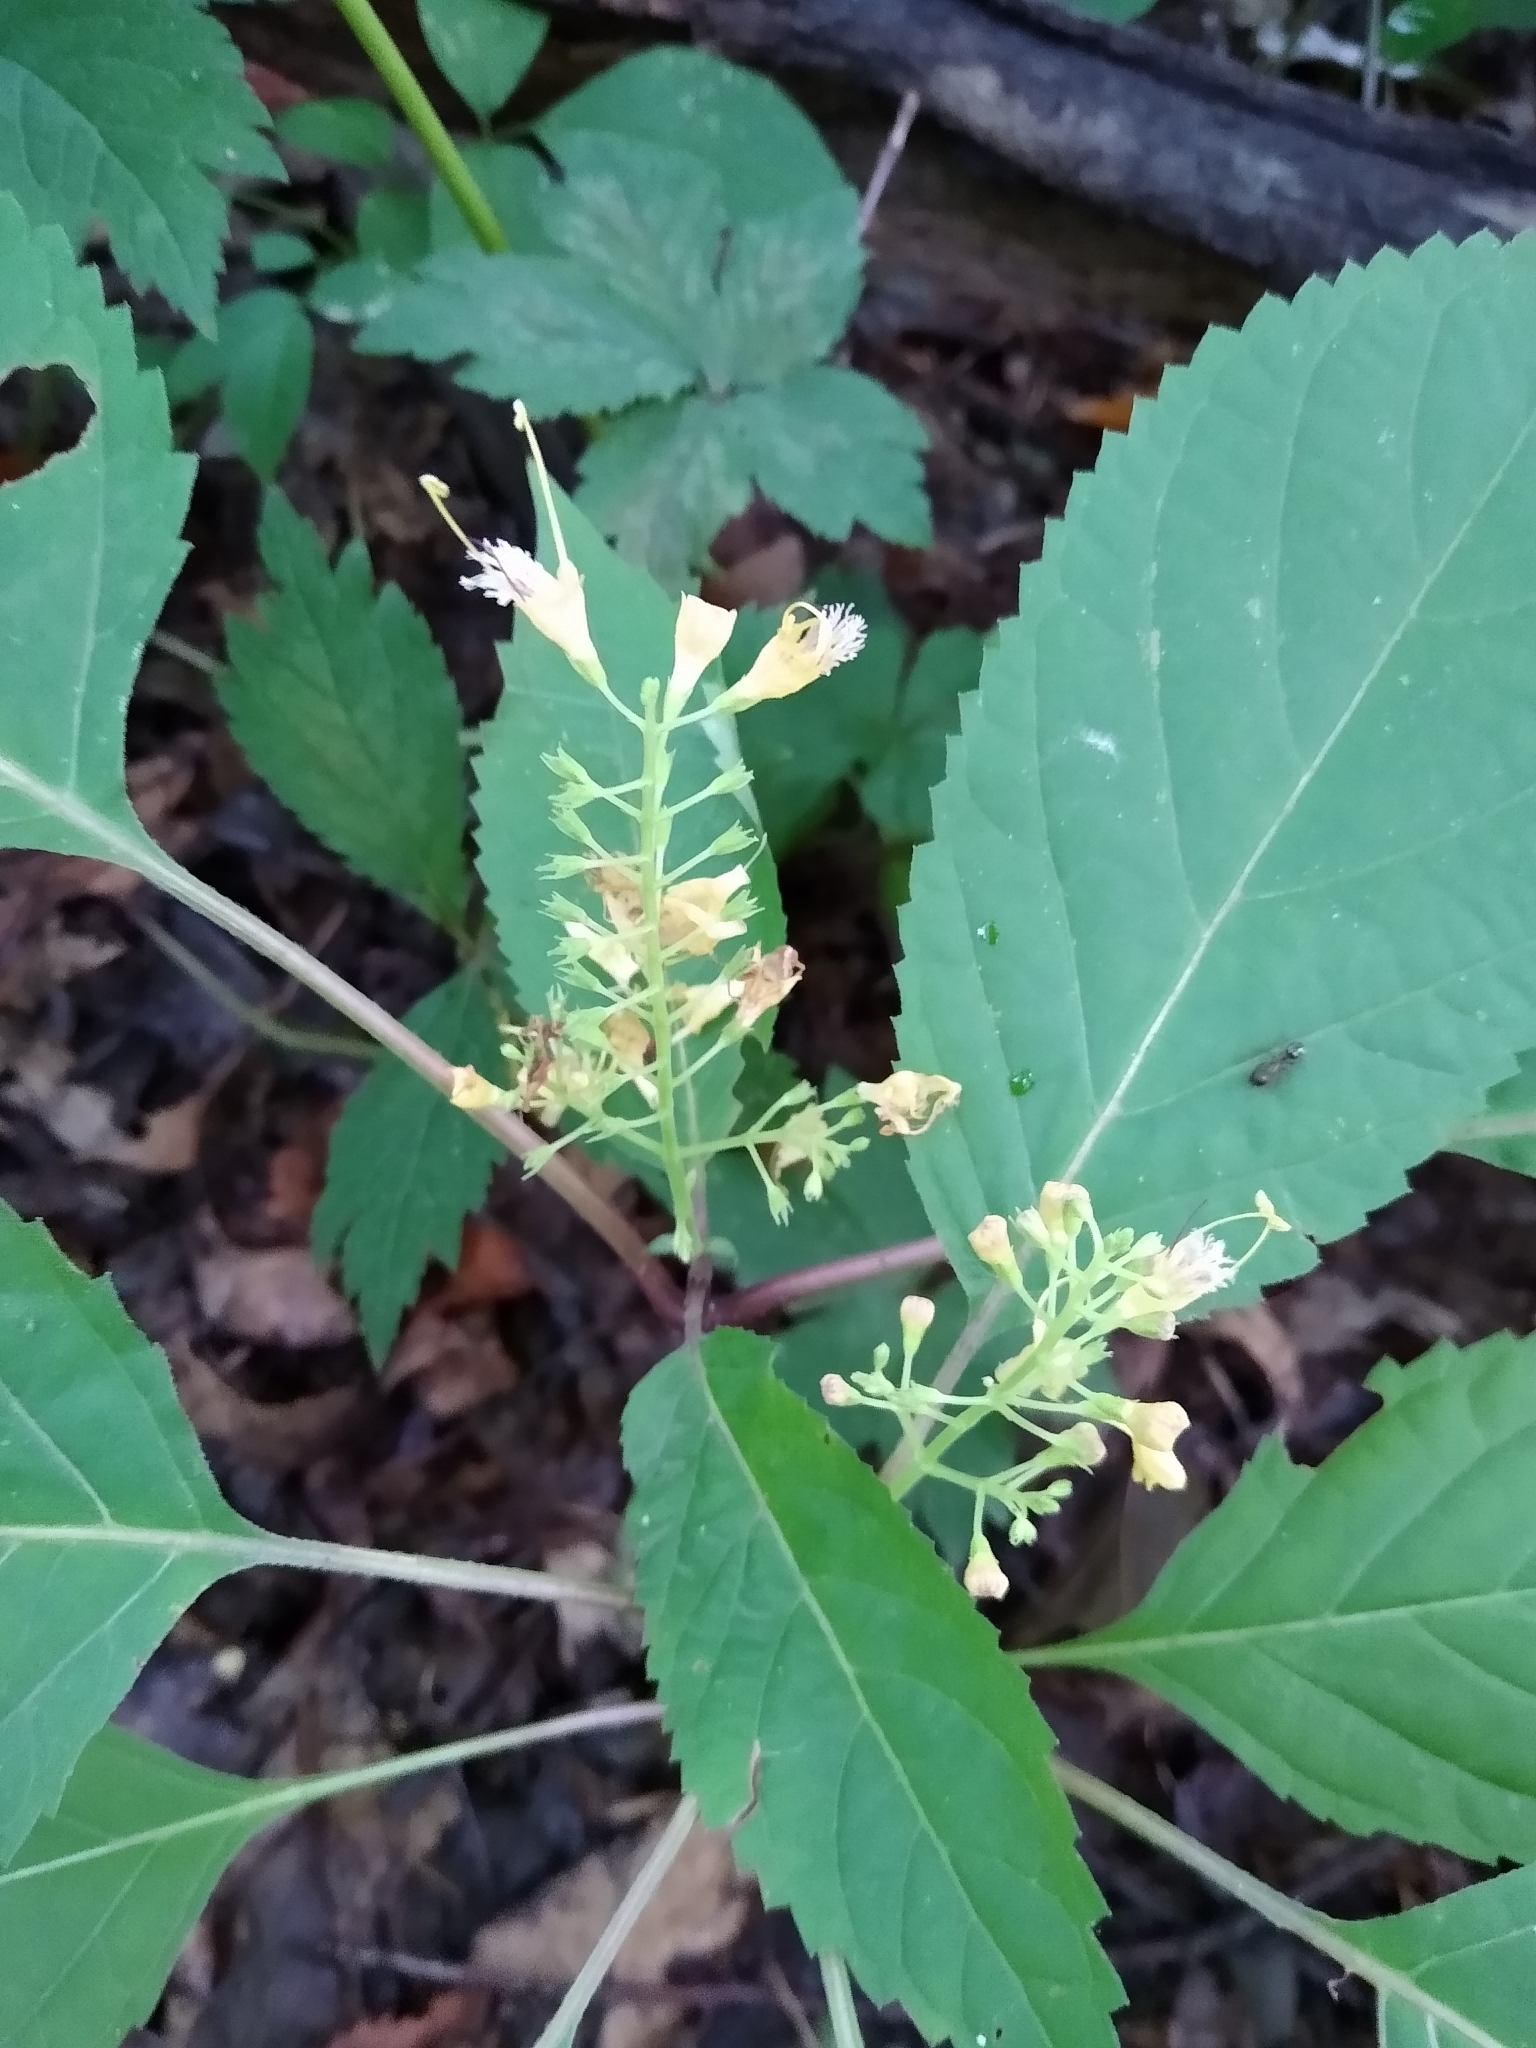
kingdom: Plantae
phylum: Tracheophyta
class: Magnoliopsida
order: Lamiales
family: Lamiaceae
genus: Collinsonia
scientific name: Collinsonia canadensis
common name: Northern horsebalm
